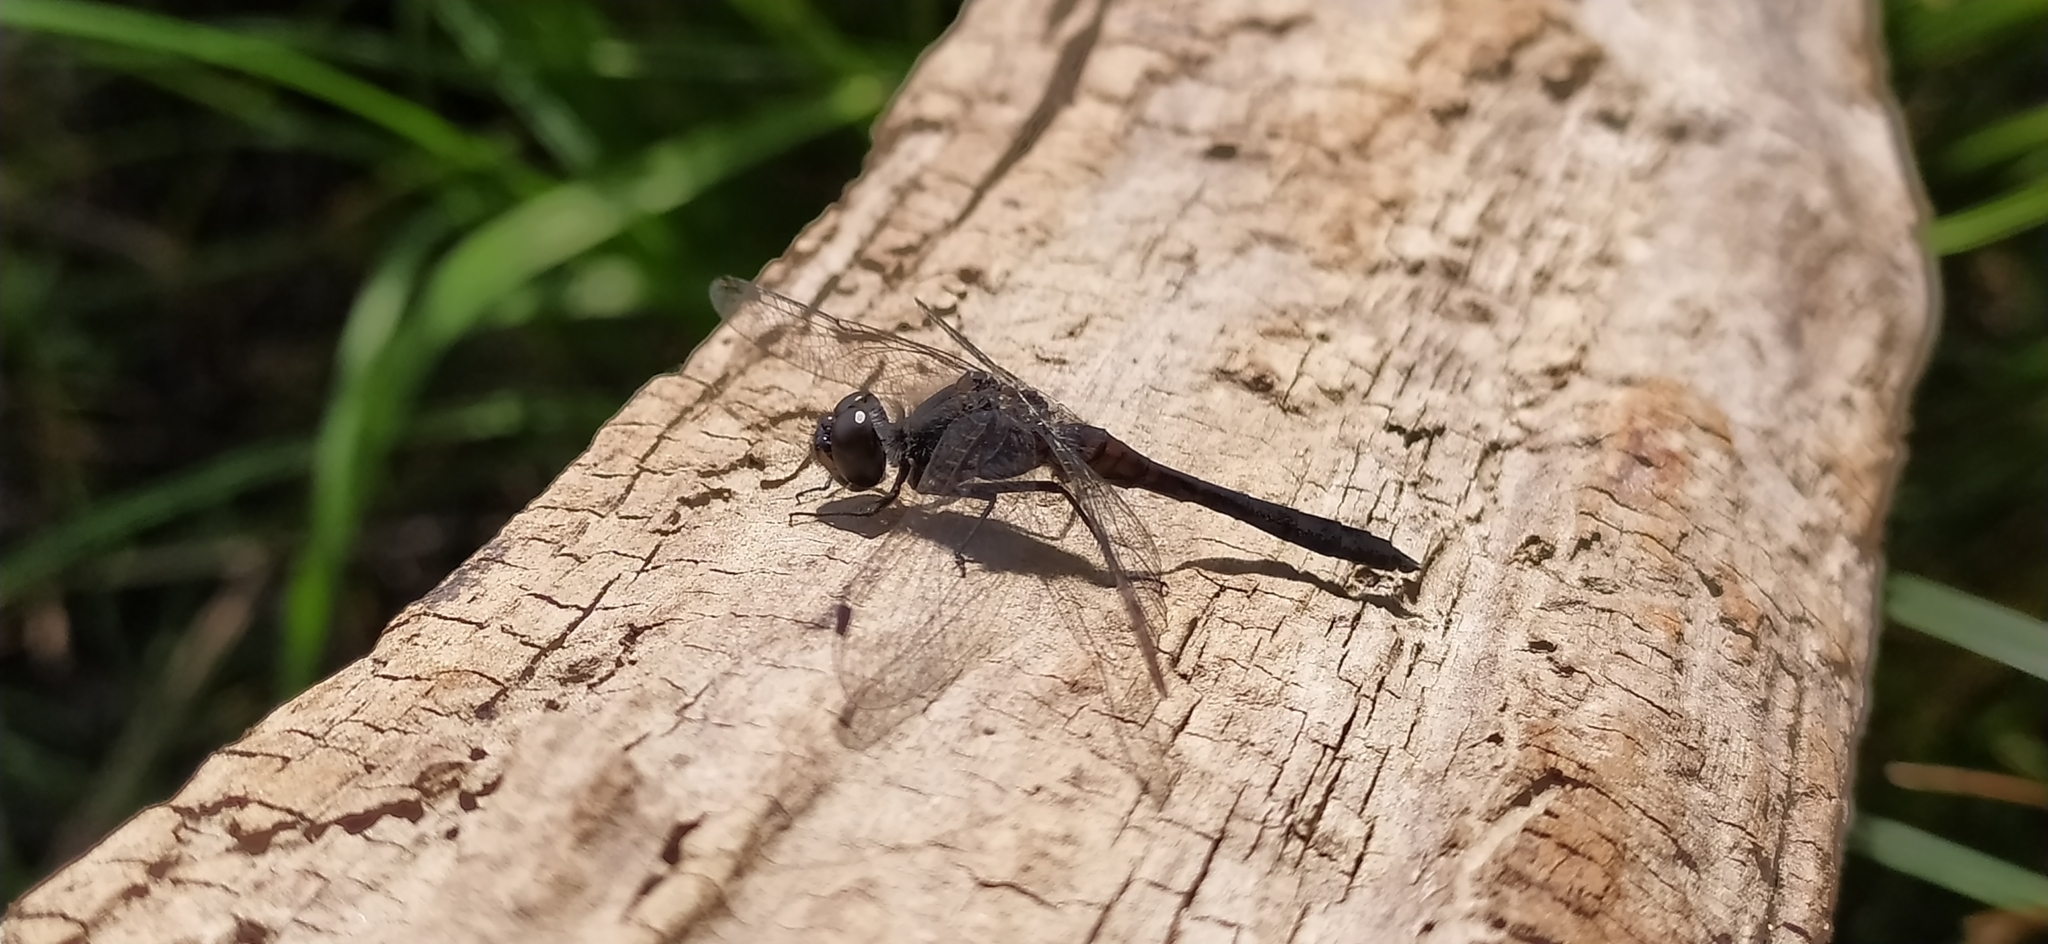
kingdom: Animalia
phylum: Arthropoda
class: Insecta
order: Odonata
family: Libellulidae
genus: Sympetrum
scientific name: Sympetrum danae
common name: Black darter
